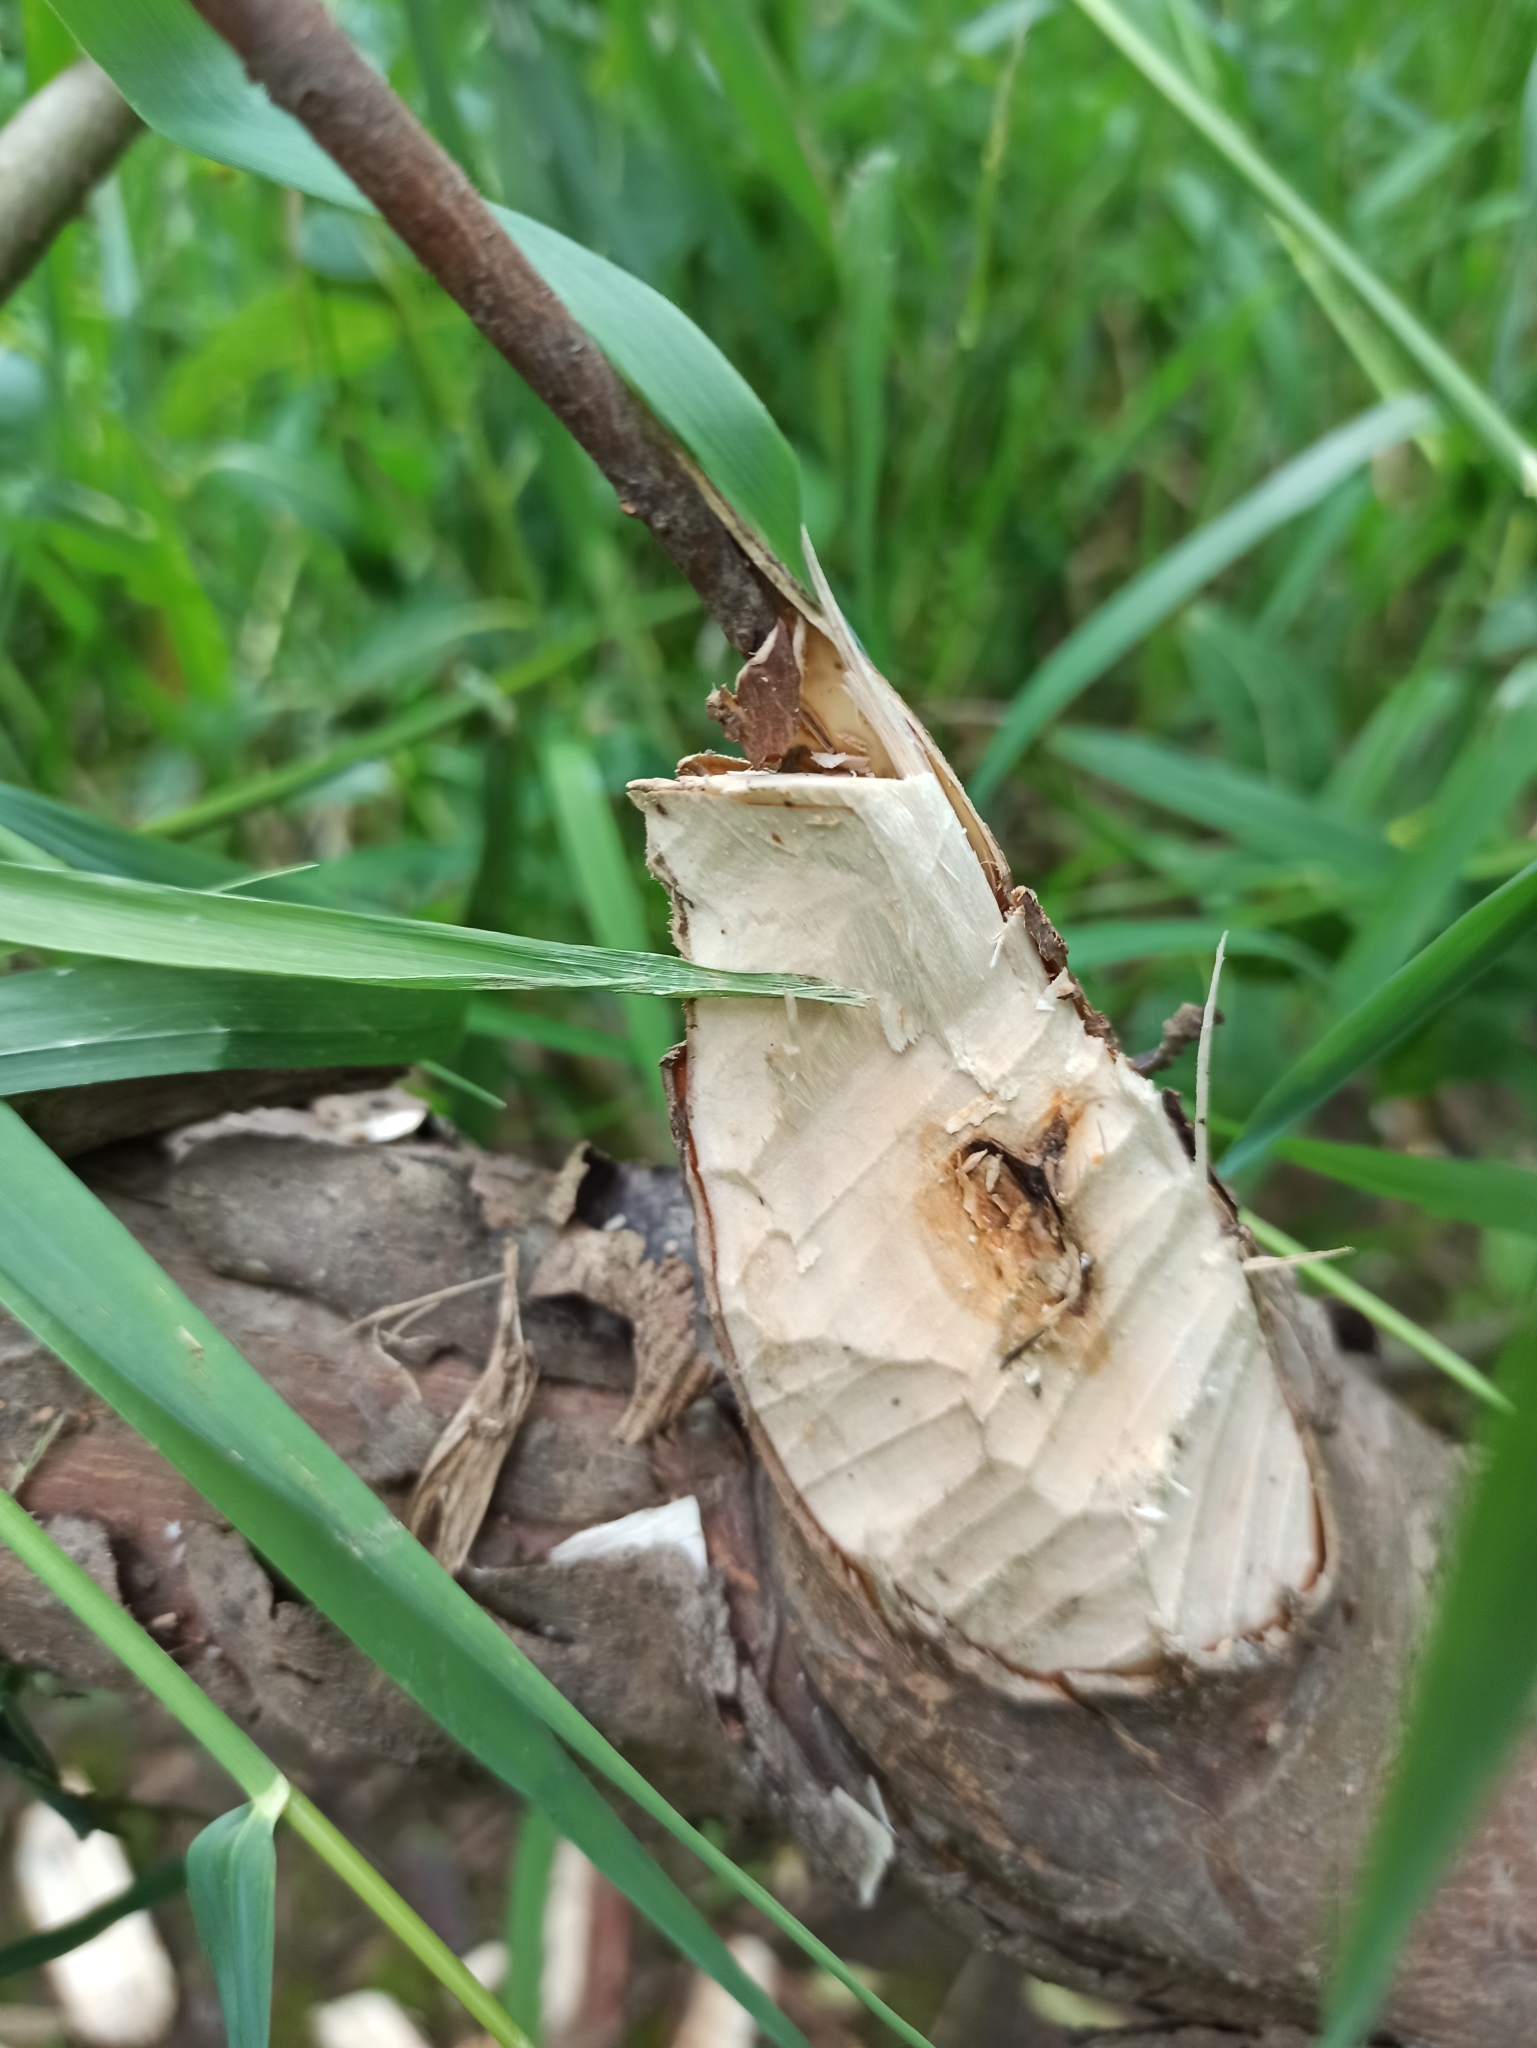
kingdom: Animalia
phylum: Chordata
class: Mammalia
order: Rodentia
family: Castoridae
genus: Castor
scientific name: Castor fiber
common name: Eurasian beaver
